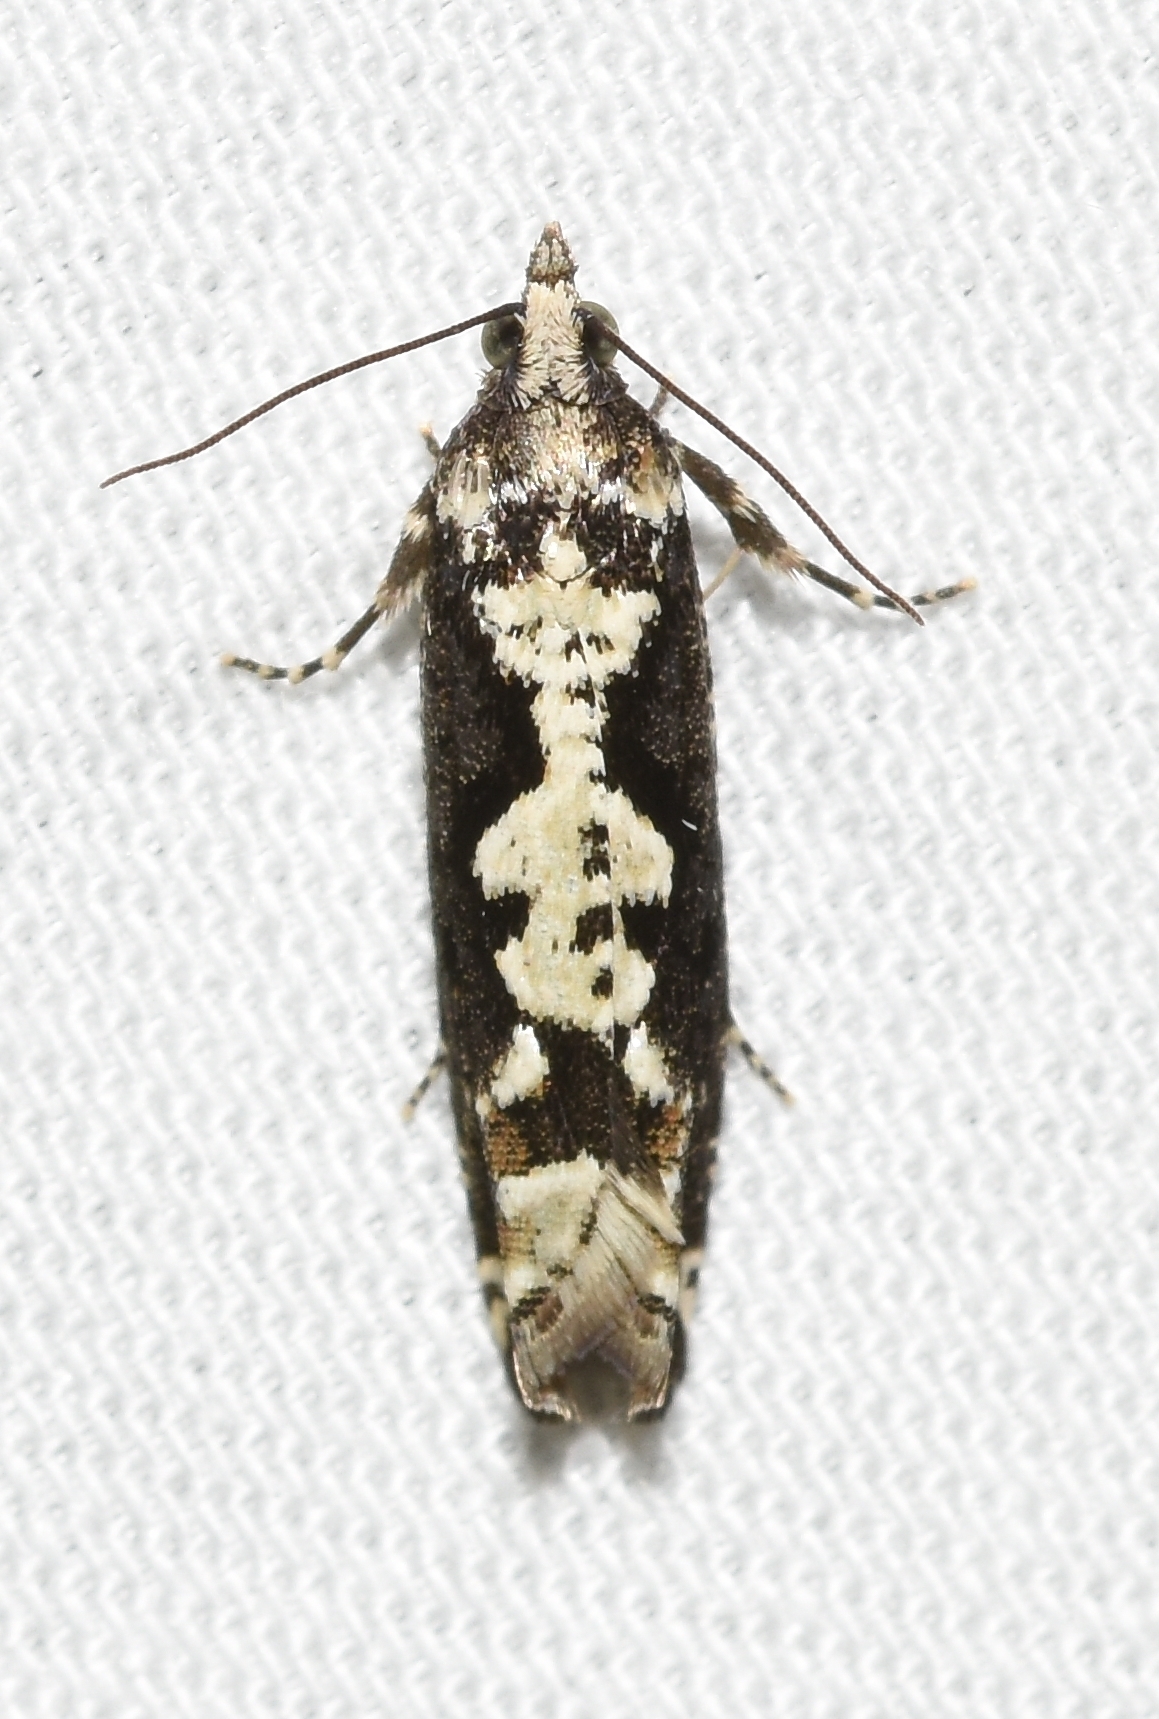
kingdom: Animalia
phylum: Arthropoda
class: Insecta
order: Lepidoptera
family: Tortricidae
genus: Chimoptesis
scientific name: Chimoptesis pennsylvaniana
